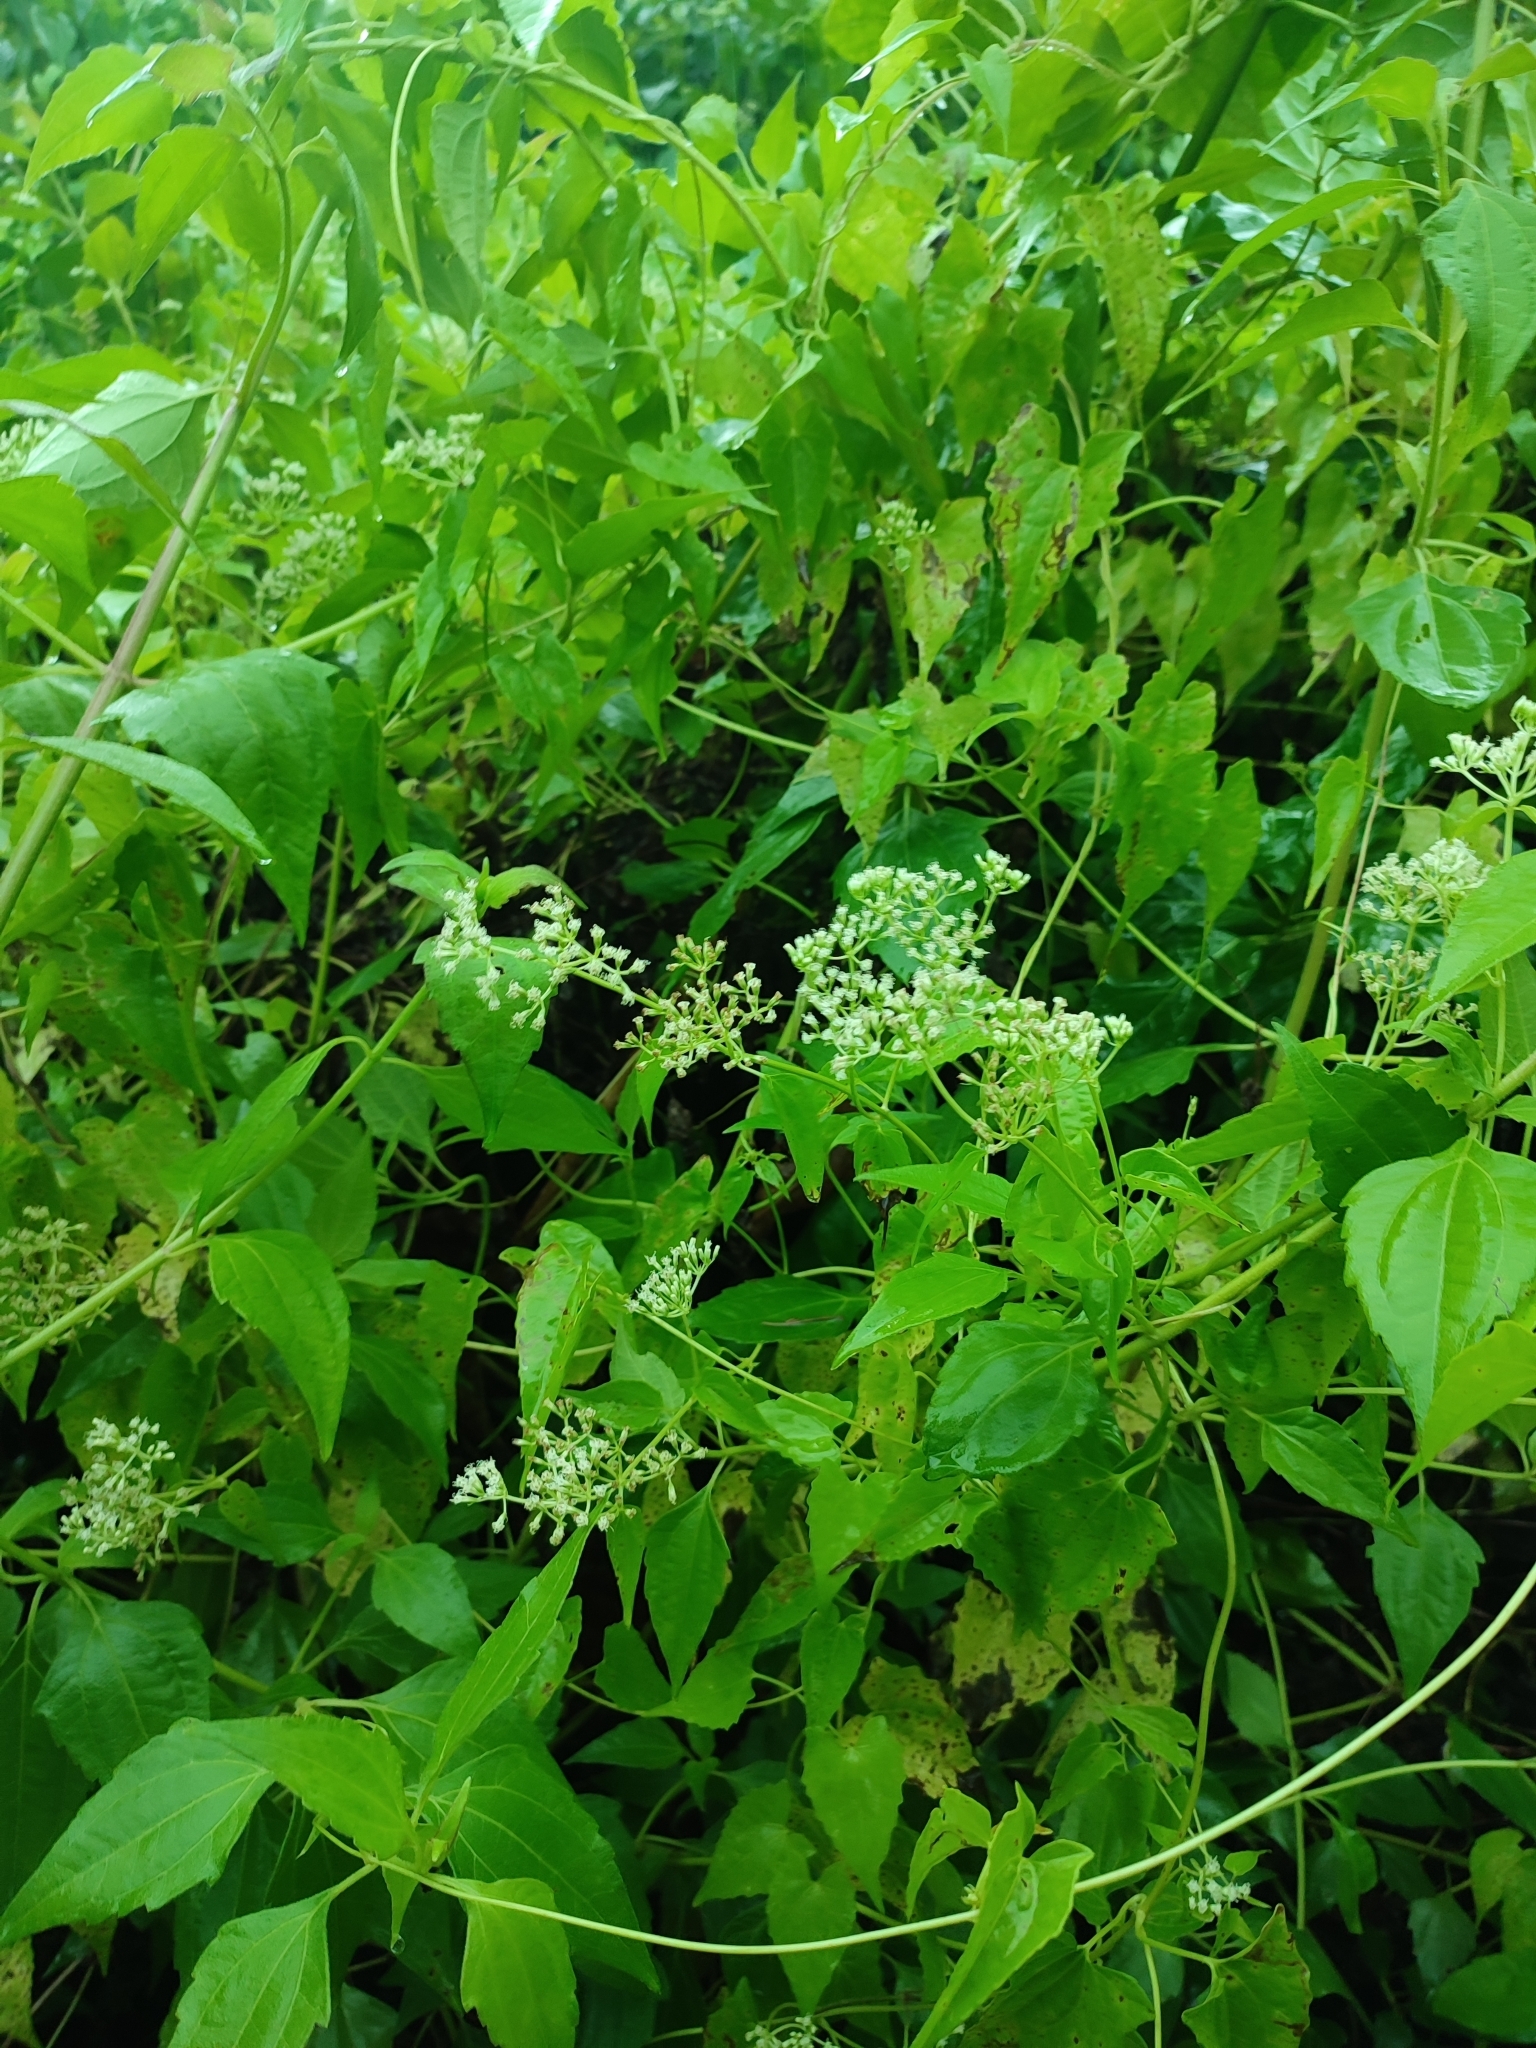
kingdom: Plantae
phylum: Tracheophyta
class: Magnoliopsida
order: Asterales
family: Asteraceae
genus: Mikania
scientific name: Mikania micrantha
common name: Mile-a-minute
